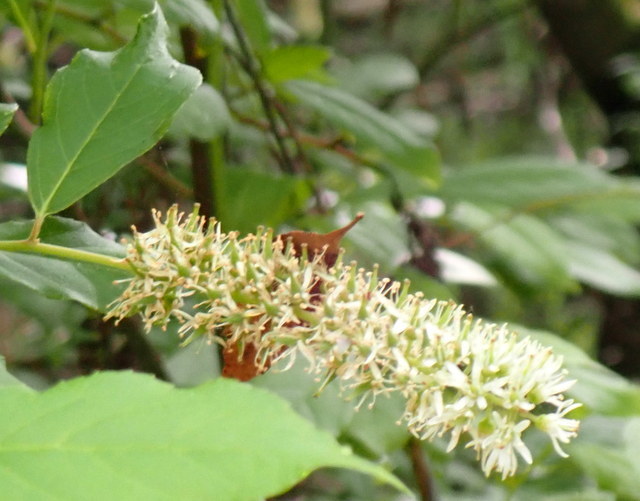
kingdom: Plantae
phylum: Tracheophyta
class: Magnoliopsida
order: Saxifragales
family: Iteaceae
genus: Itea
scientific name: Itea virginica
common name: Sweetspire
